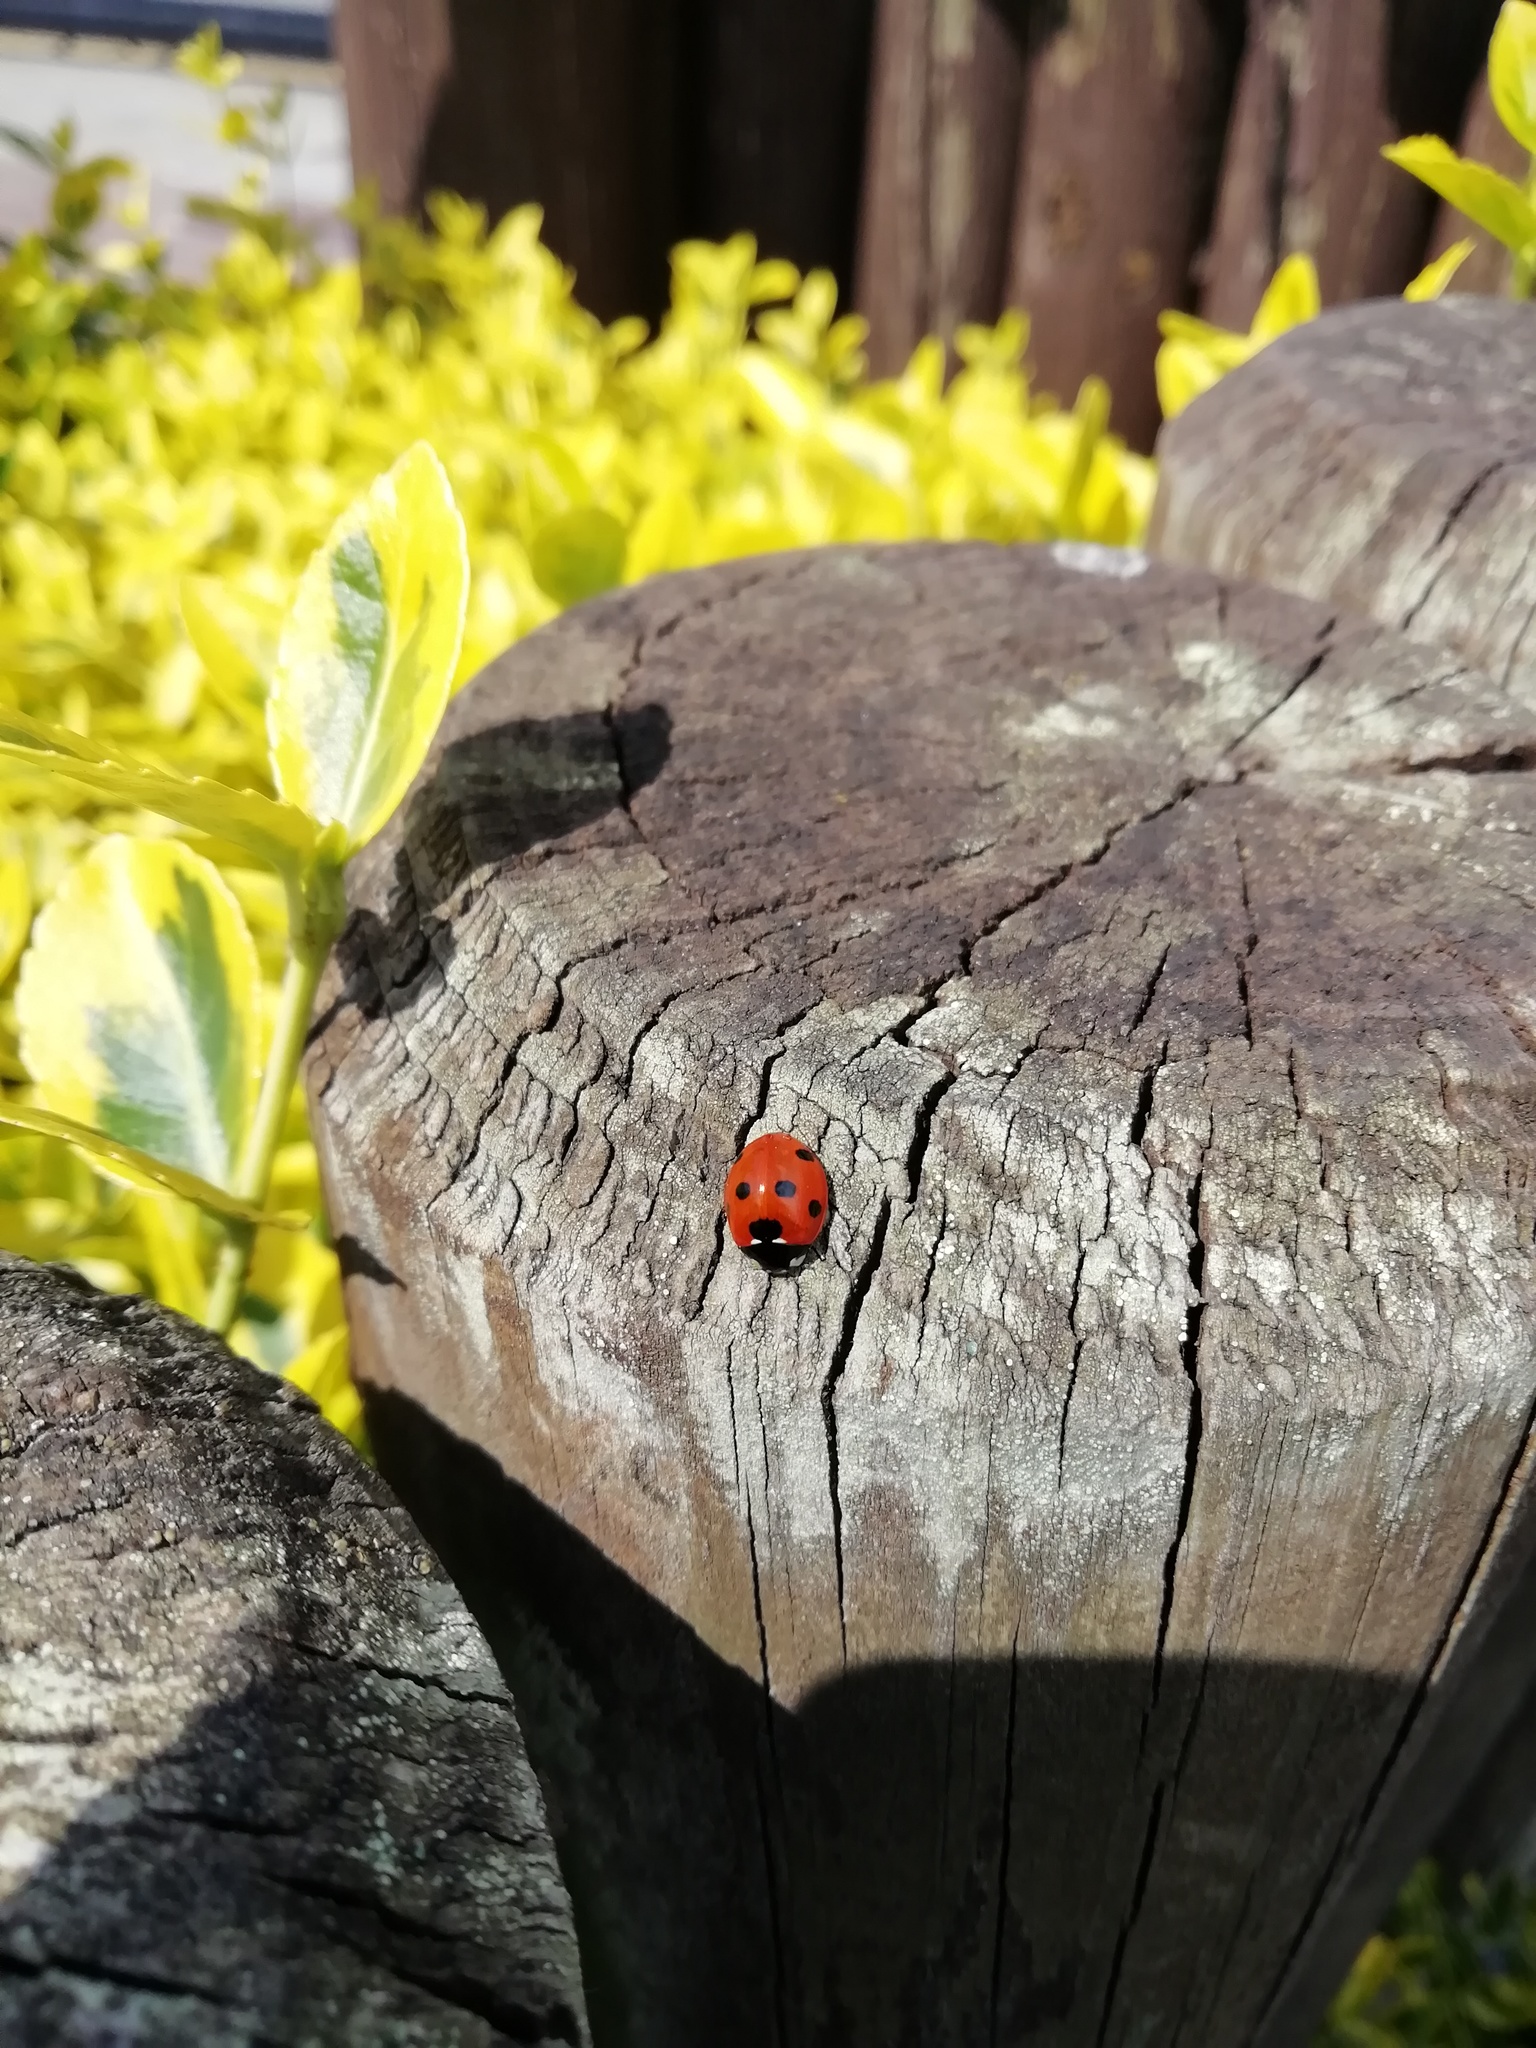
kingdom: Animalia
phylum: Arthropoda
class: Insecta
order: Coleoptera
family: Coccinellidae
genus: Coccinella
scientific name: Coccinella septempunctata
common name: Sevenspotted lady beetle
